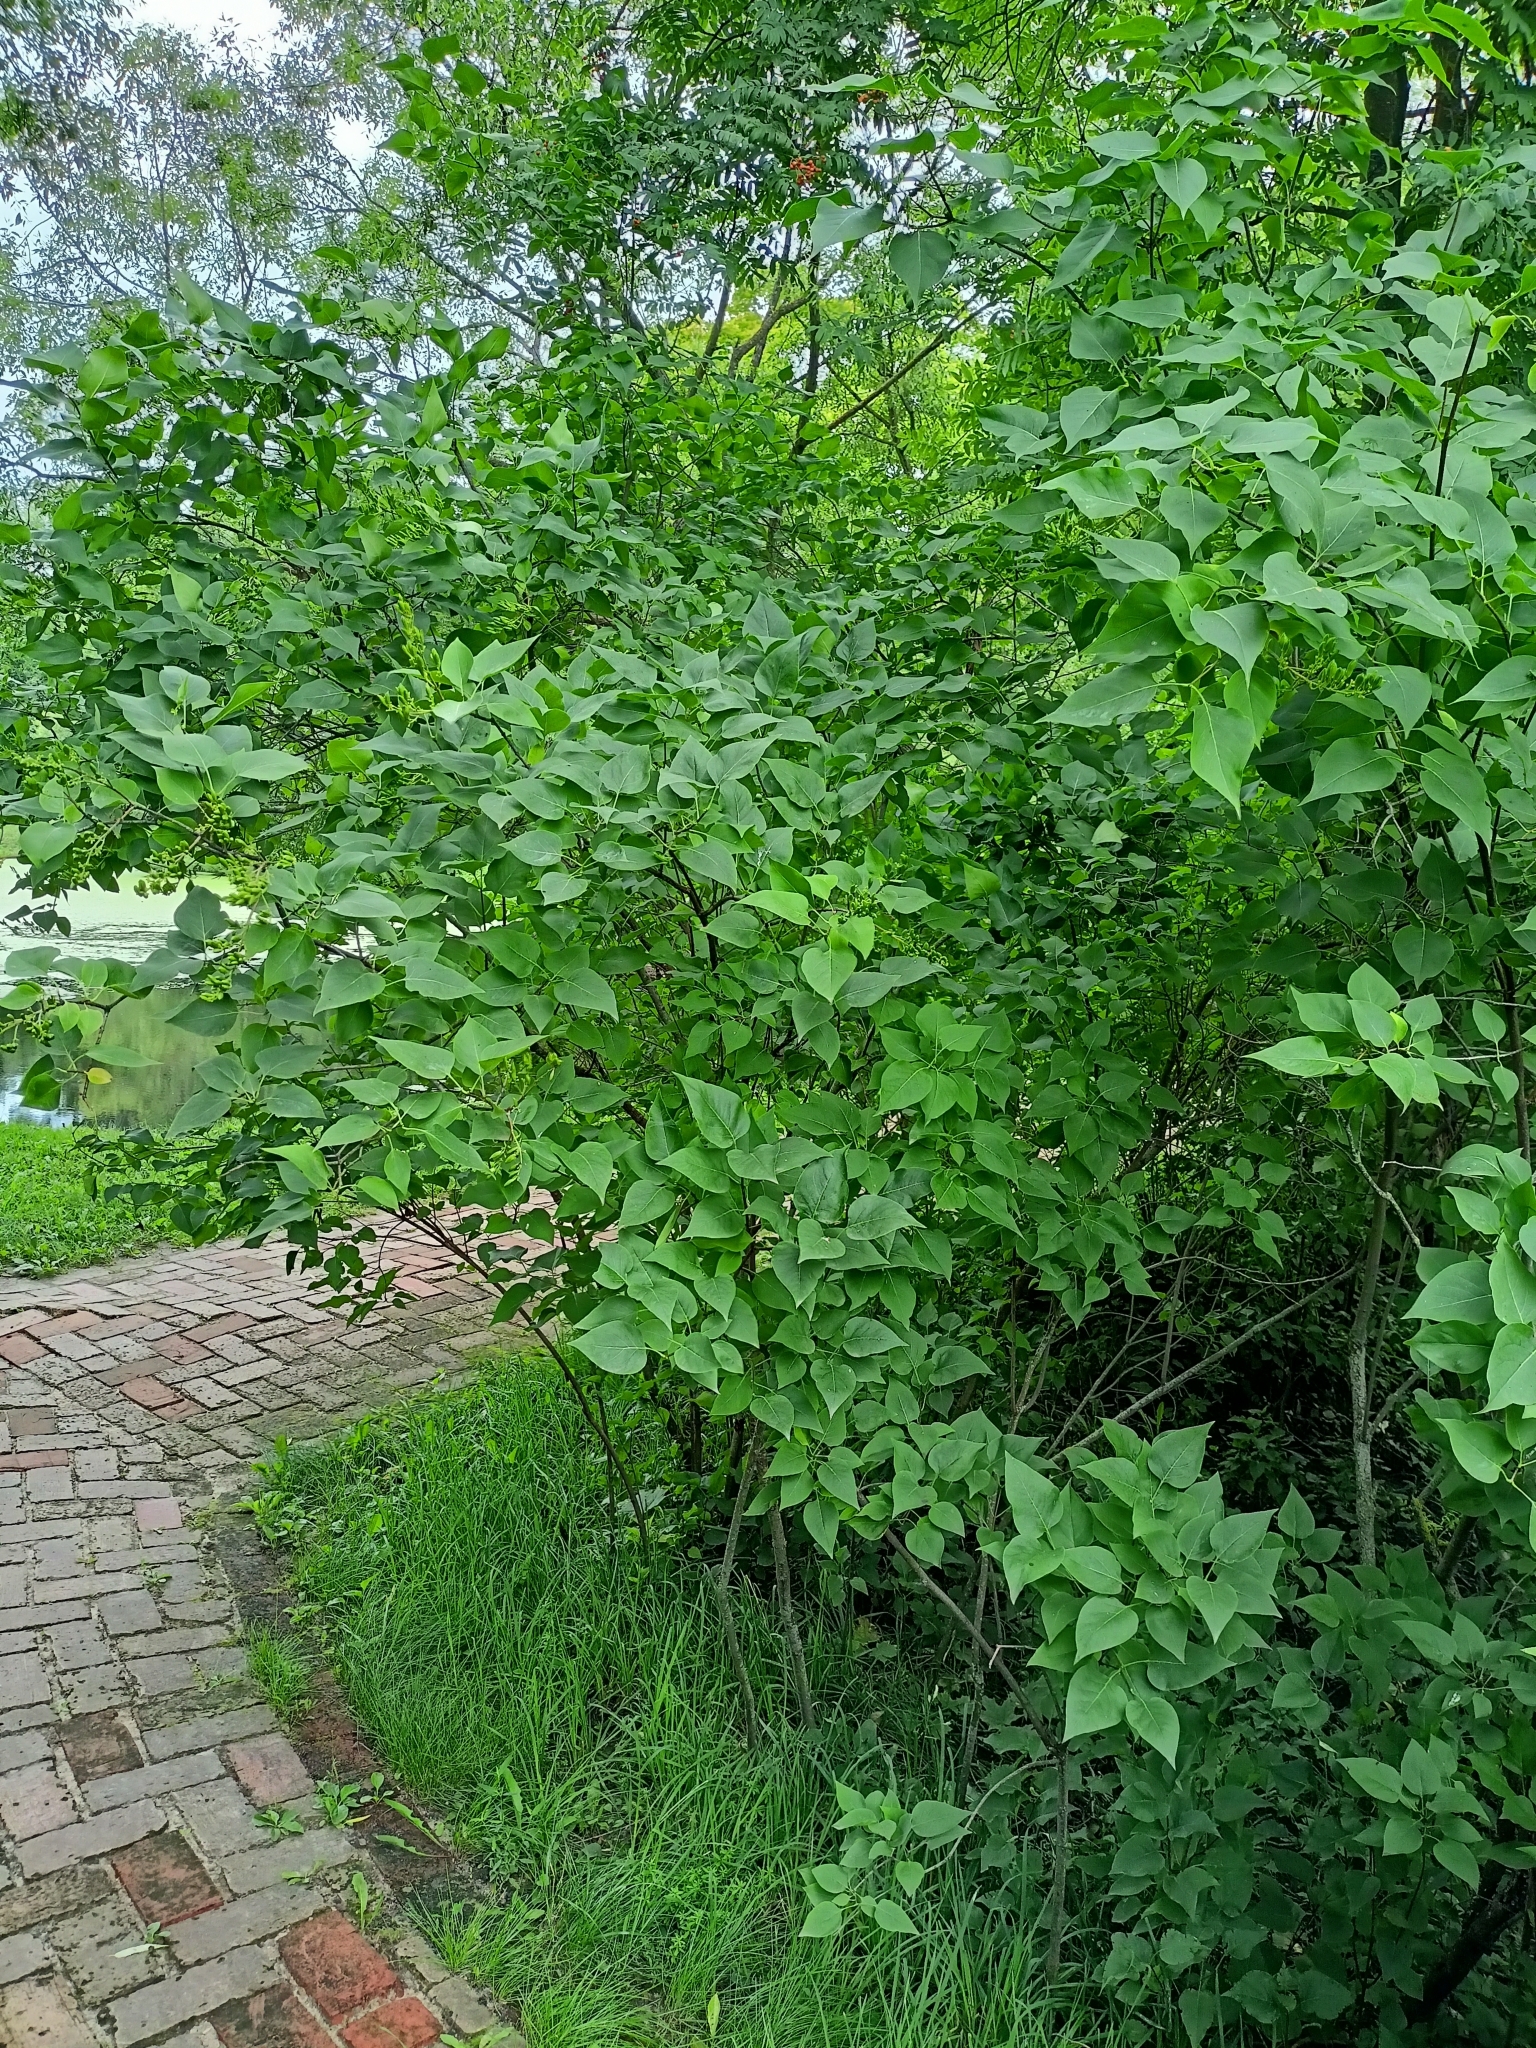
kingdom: Plantae
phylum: Tracheophyta
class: Magnoliopsida
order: Lamiales
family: Oleaceae
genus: Syringa
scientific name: Syringa vulgaris
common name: Common lilac
